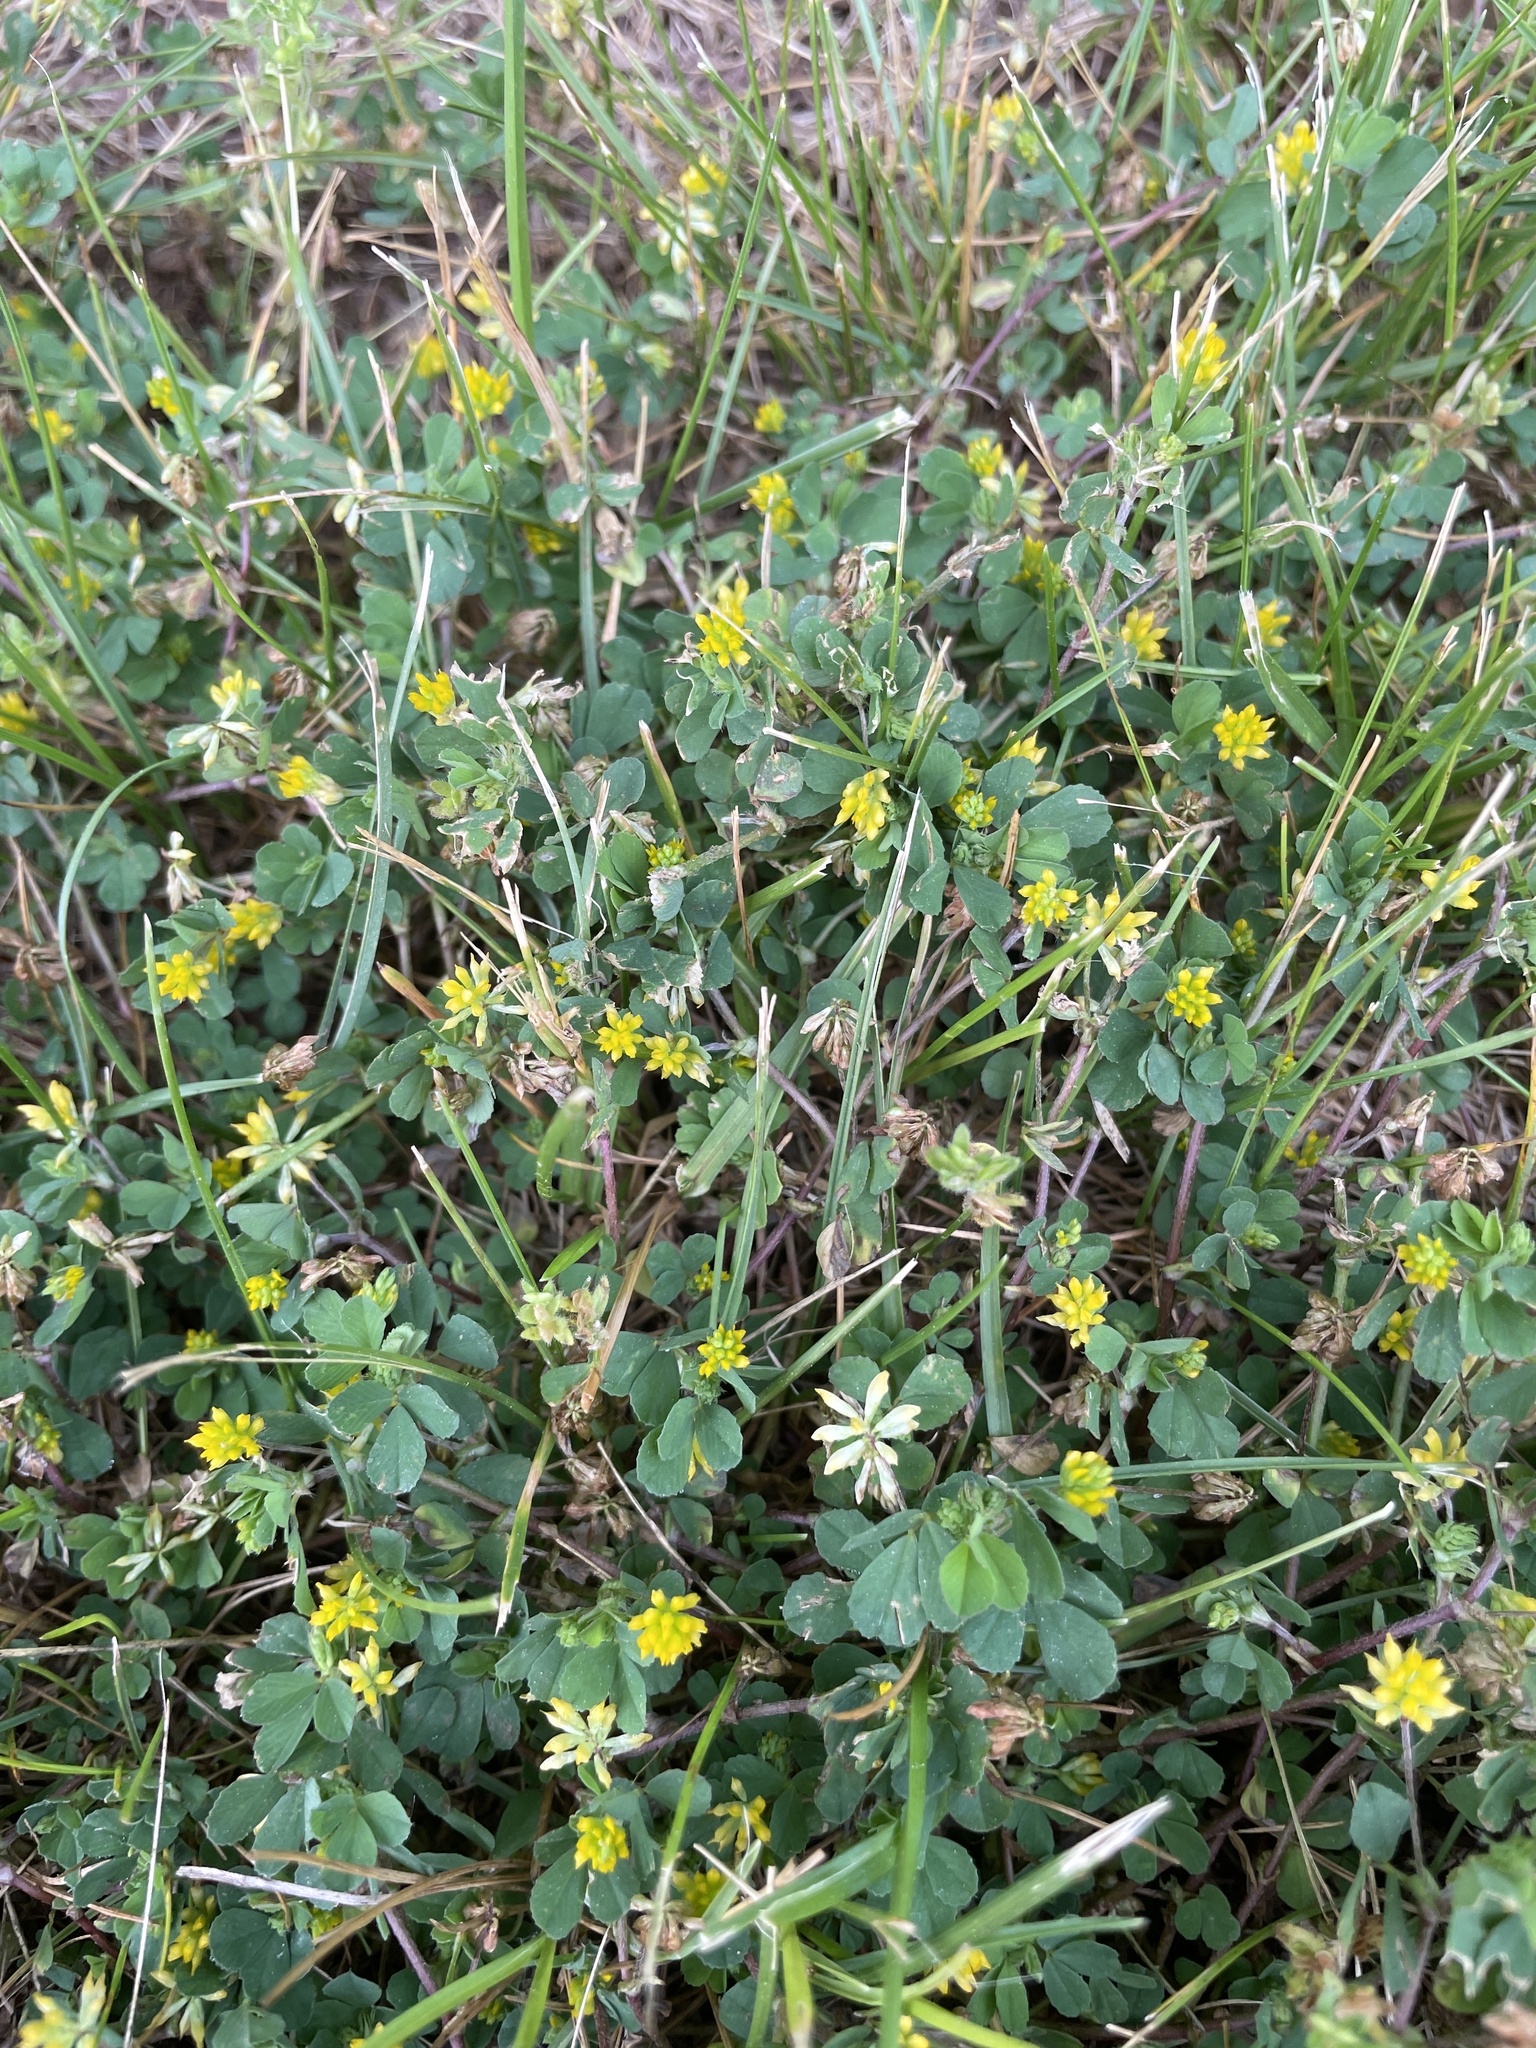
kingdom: Plantae
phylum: Tracheophyta
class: Magnoliopsida
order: Fabales
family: Fabaceae
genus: Trifolium
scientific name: Trifolium dubium
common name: Suckling clover
